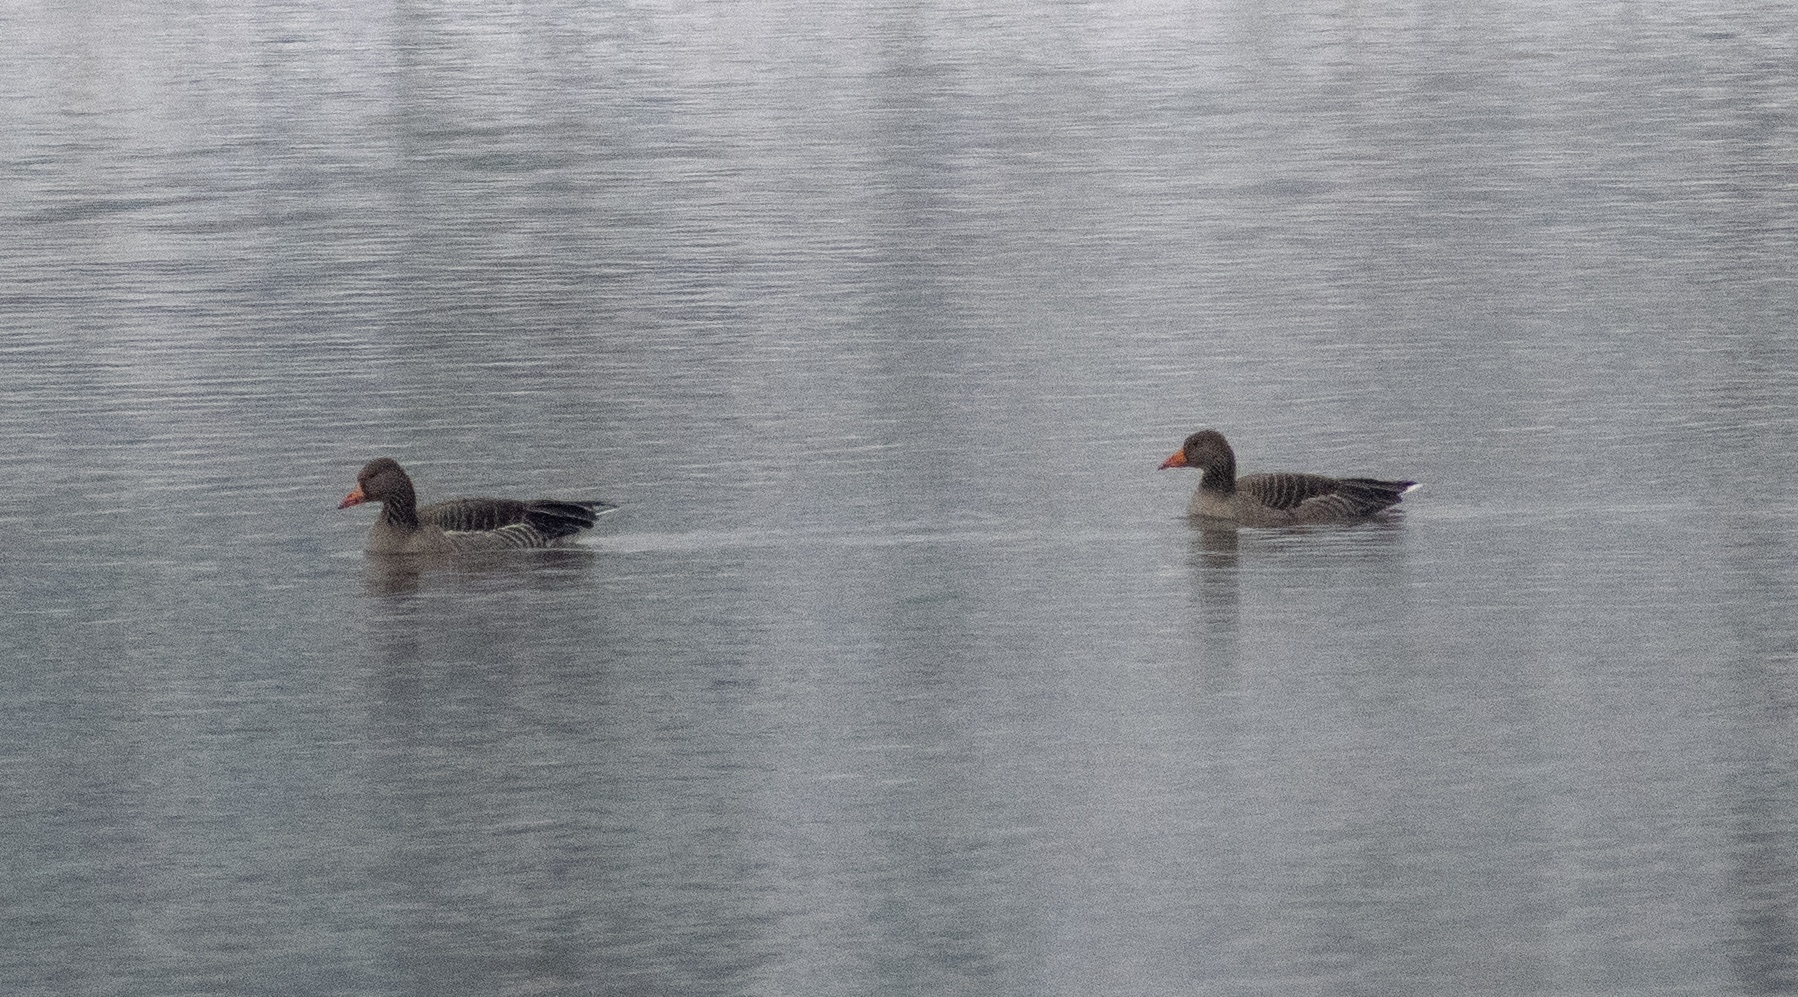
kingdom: Animalia
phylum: Chordata
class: Aves
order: Anseriformes
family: Anatidae
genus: Anser
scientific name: Anser anser
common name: Greylag goose
